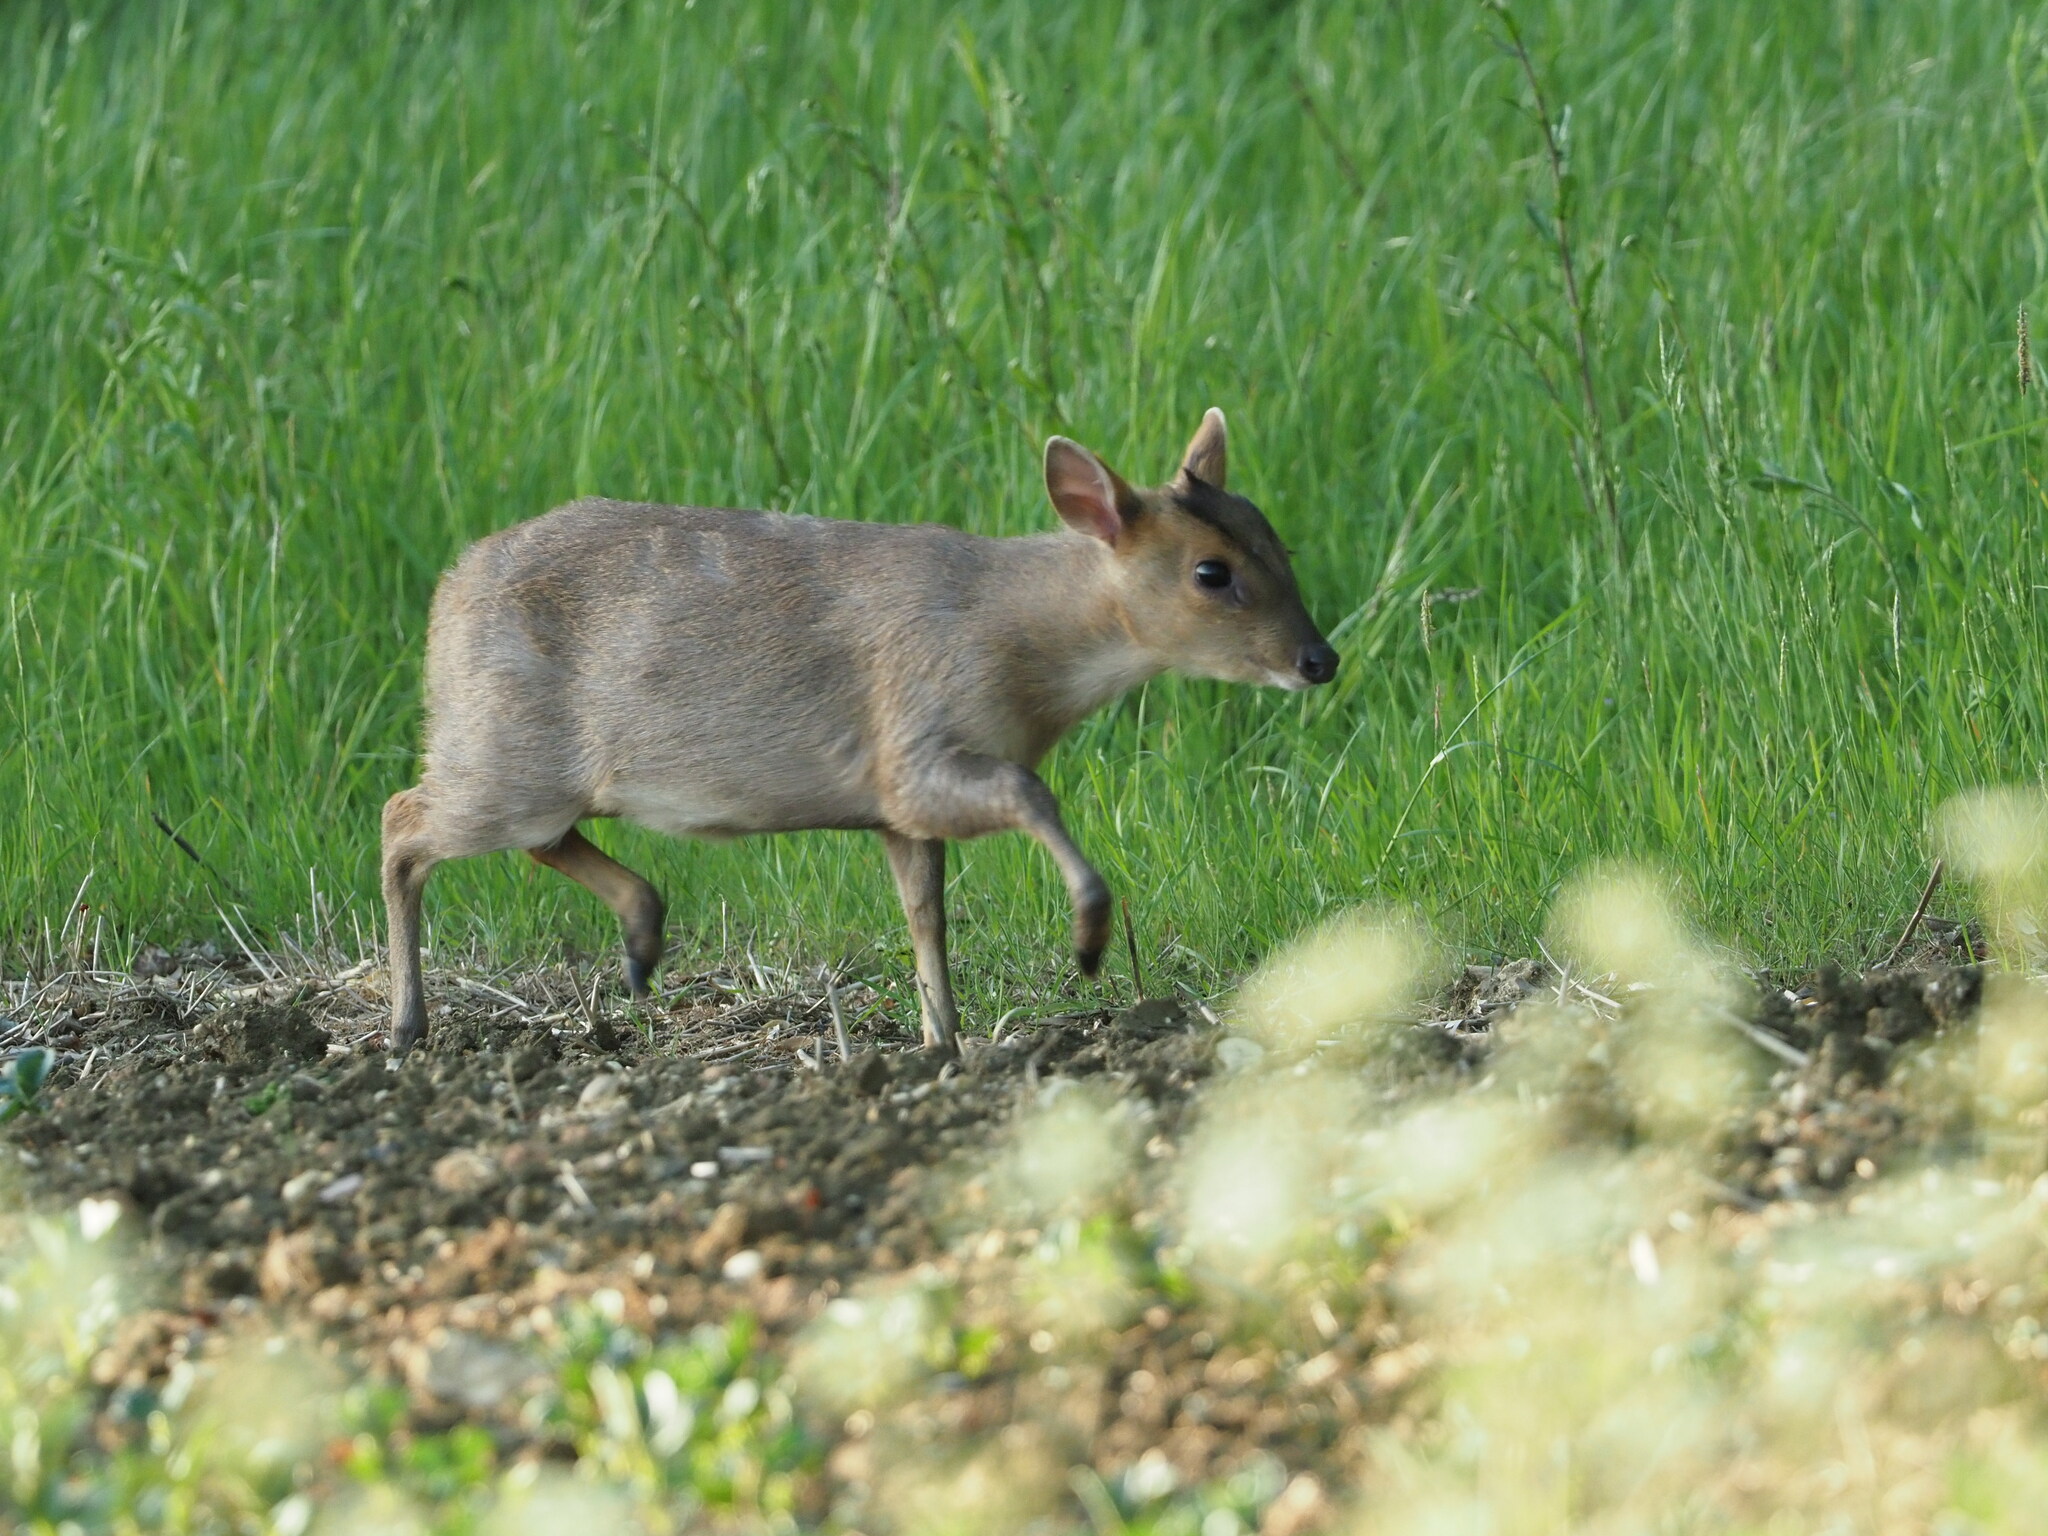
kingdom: Animalia
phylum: Chordata
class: Mammalia
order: Artiodactyla
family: Cervidae
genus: Muntiacus
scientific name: Muntiacus reevesi
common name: Reeves' muntjac
